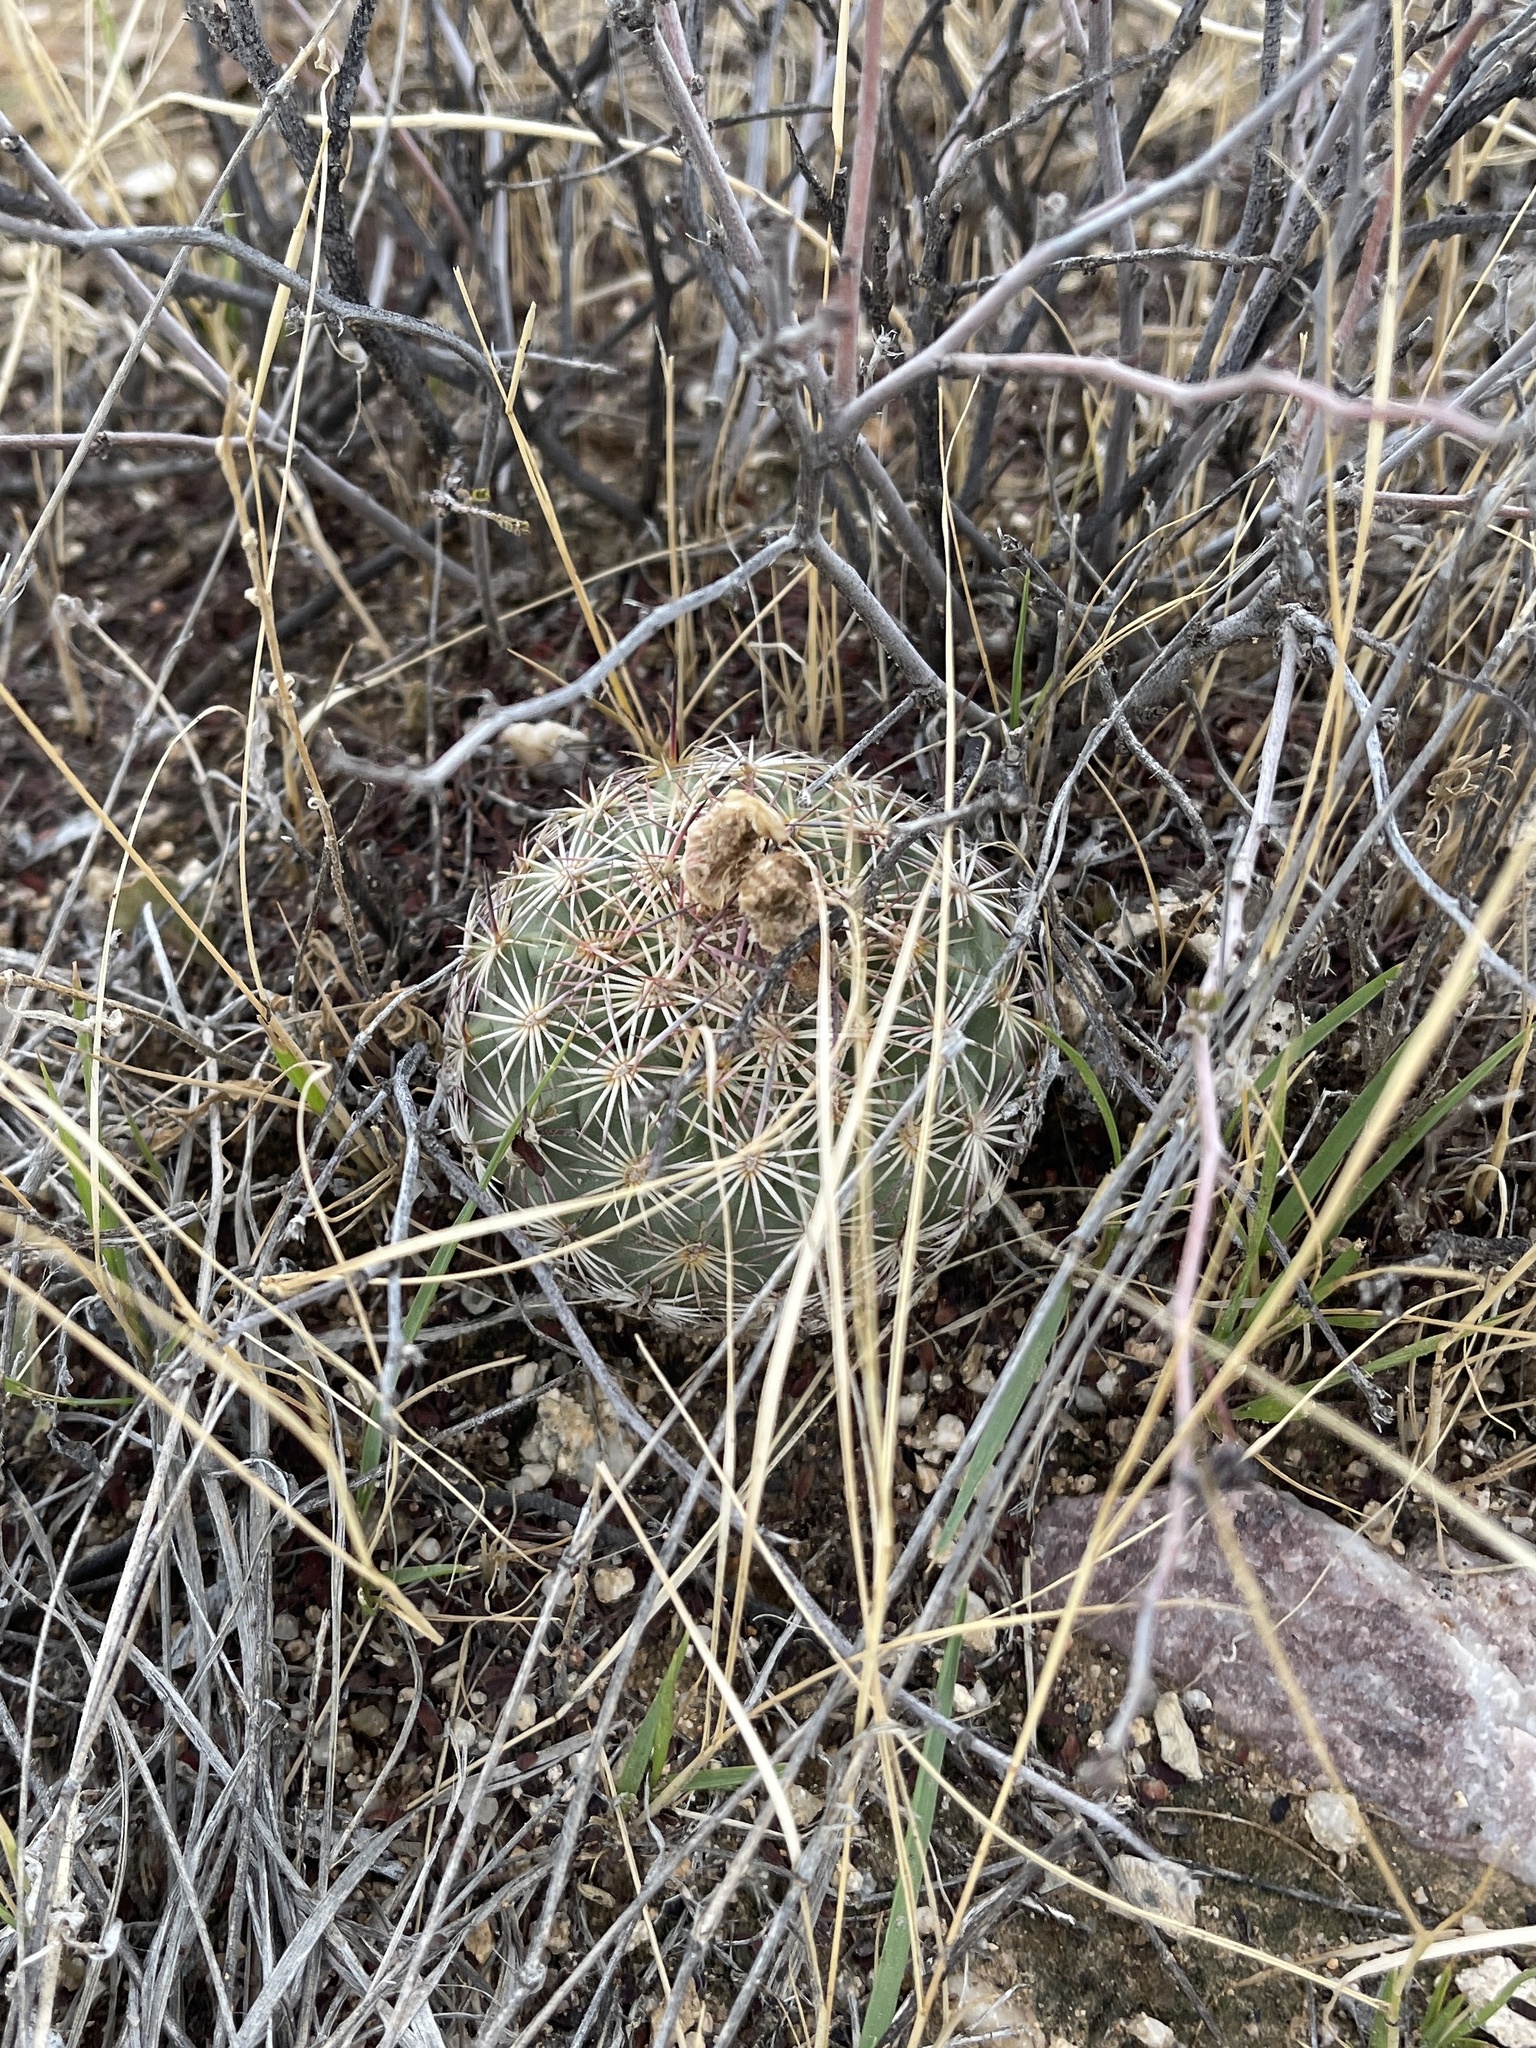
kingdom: Plantae
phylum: Tracheophyta
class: Magnoliopsida
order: Caryophyllales
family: Cactaceae
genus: Sclerocactus
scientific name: Sclerocactus johnsonii
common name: Eight-spine fishhook cactus
